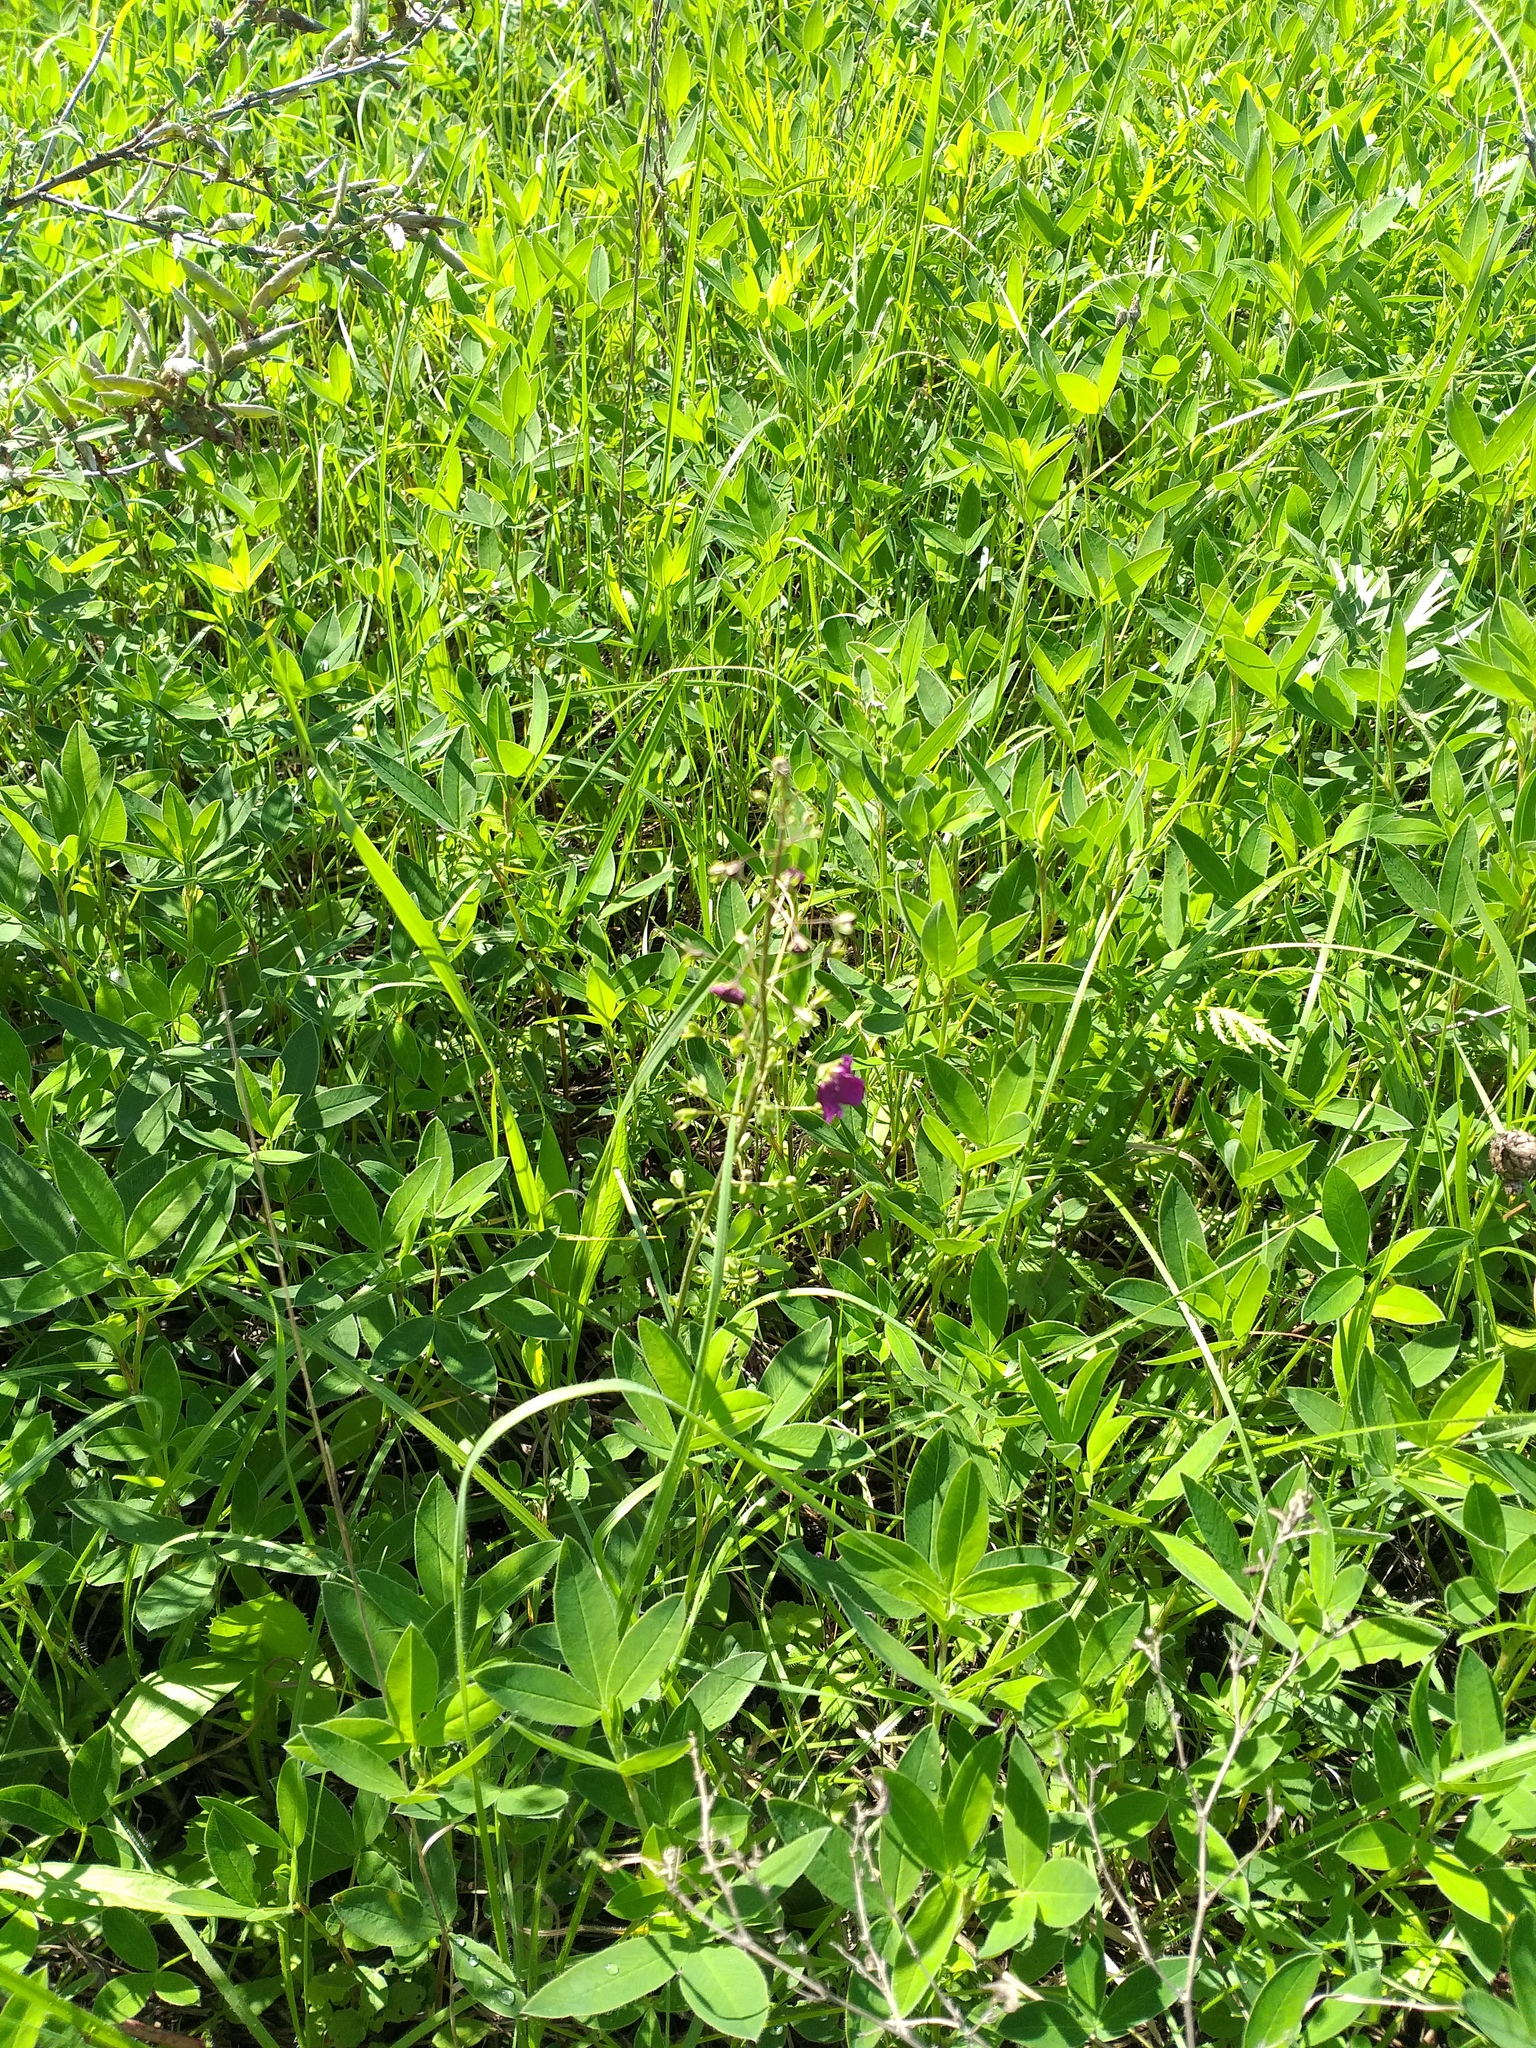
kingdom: Plantae
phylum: Tracheophyta
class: Magnoliopsida
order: Lamiales
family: Scrophulariaceae
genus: Verbascum
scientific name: Verbascum phoeniceum
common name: Purple mullein
